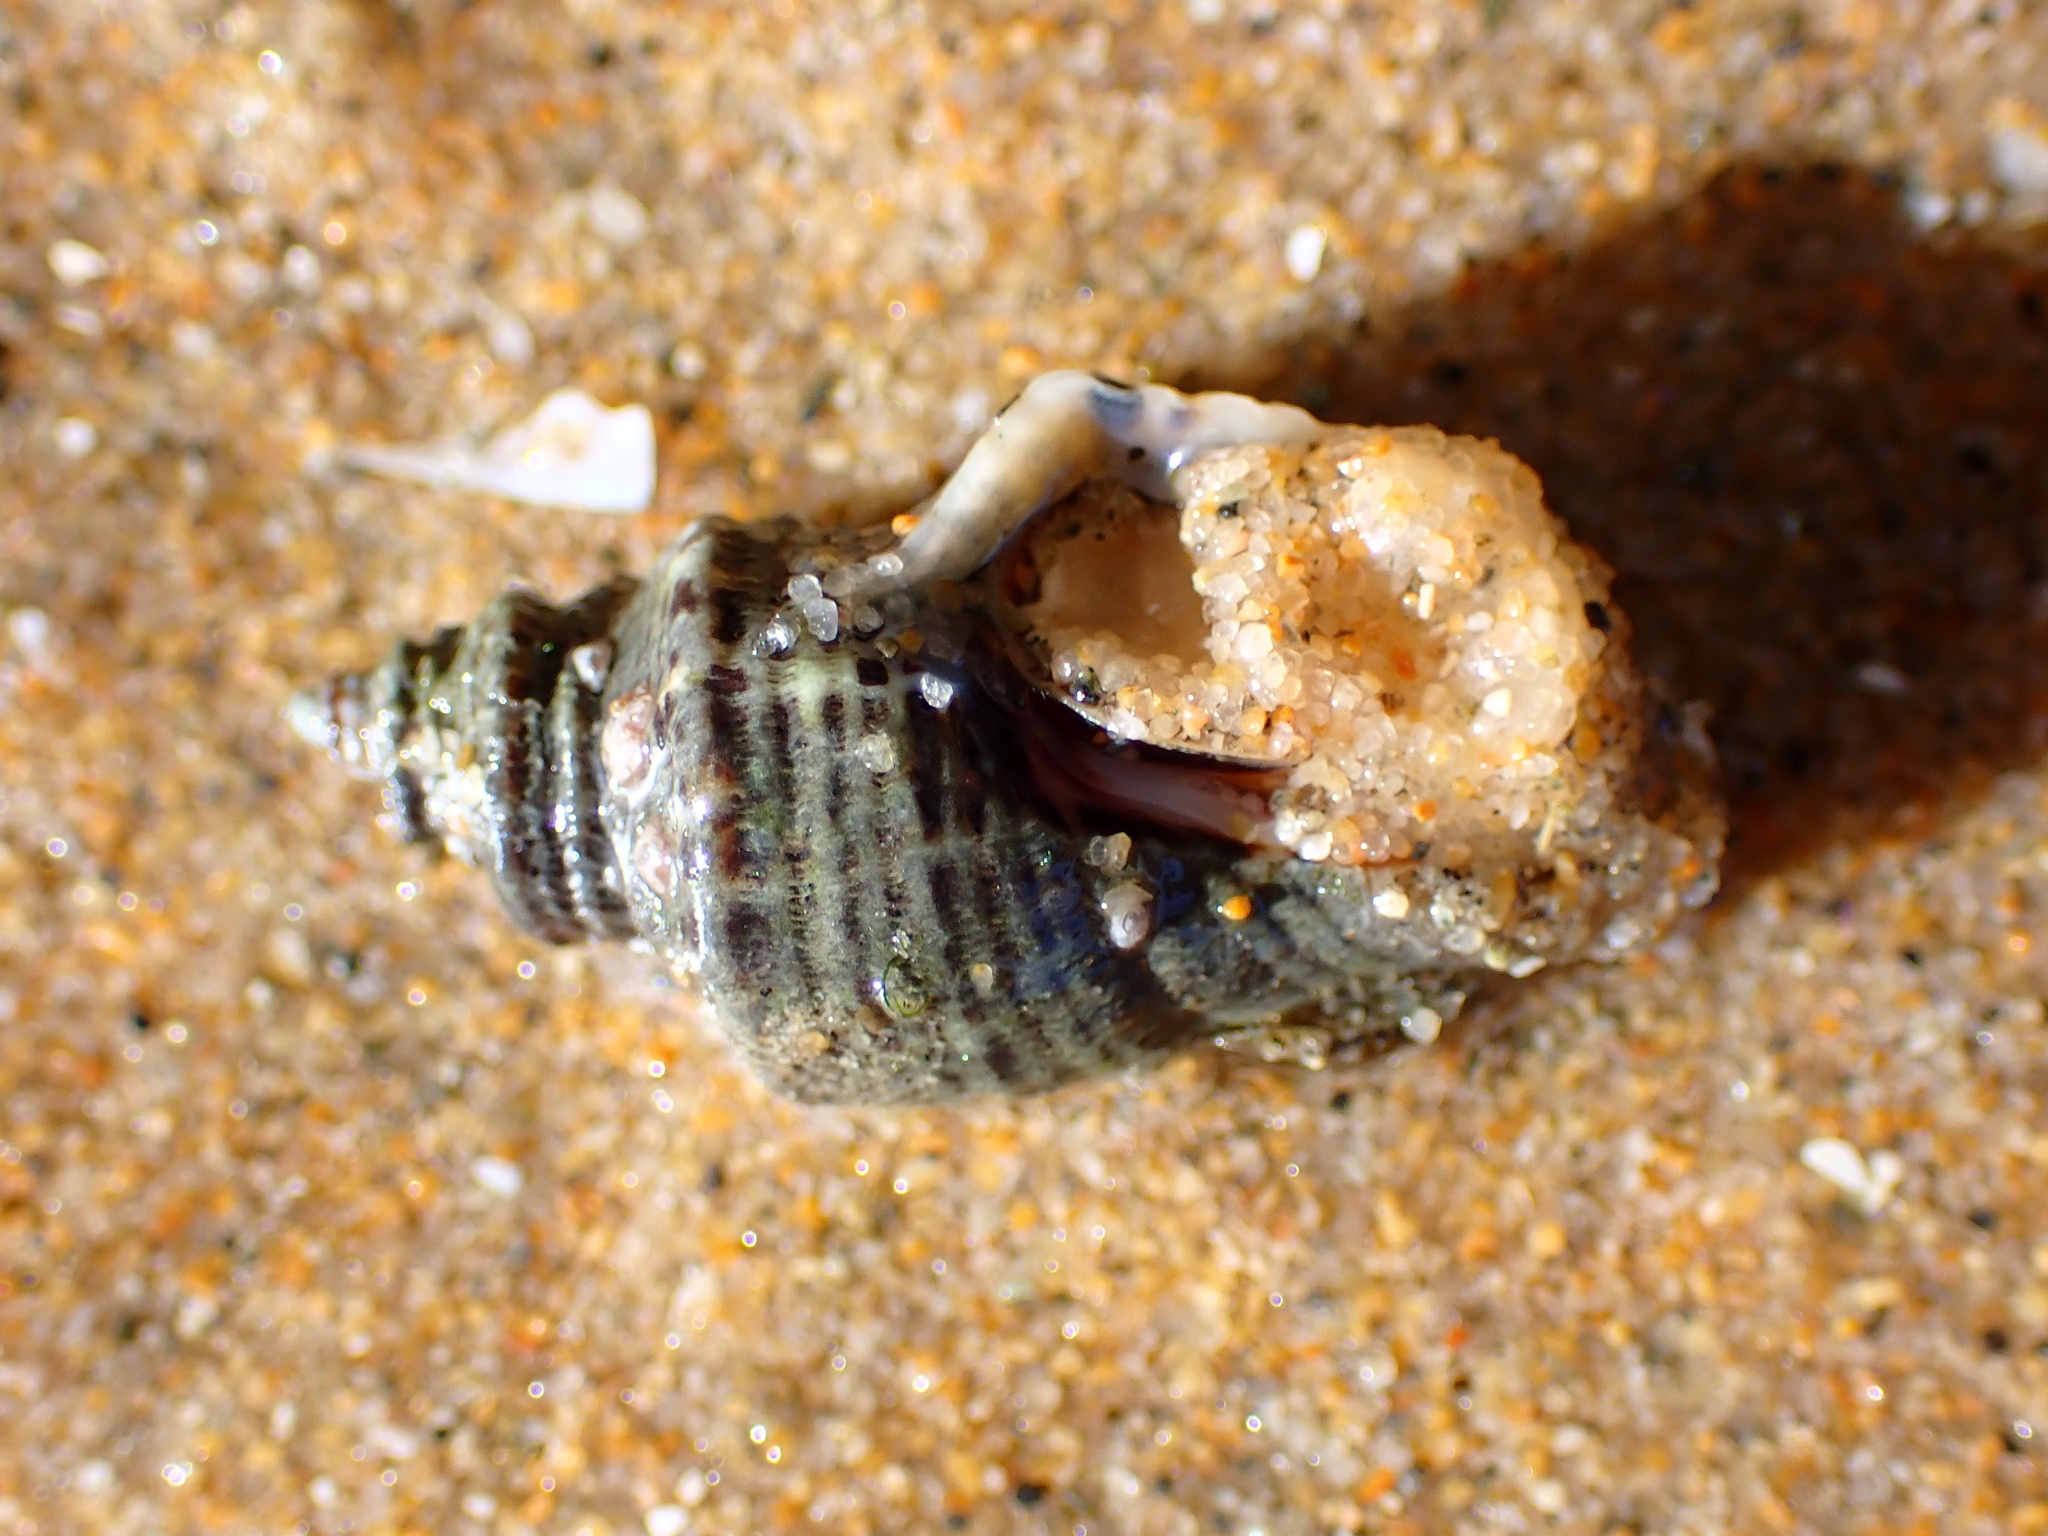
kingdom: Animalia
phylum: Mollusca
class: Gastropoda
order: Neogastropoda
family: Muricidae
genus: Acanthinucella
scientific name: Acanthinucella spirata
